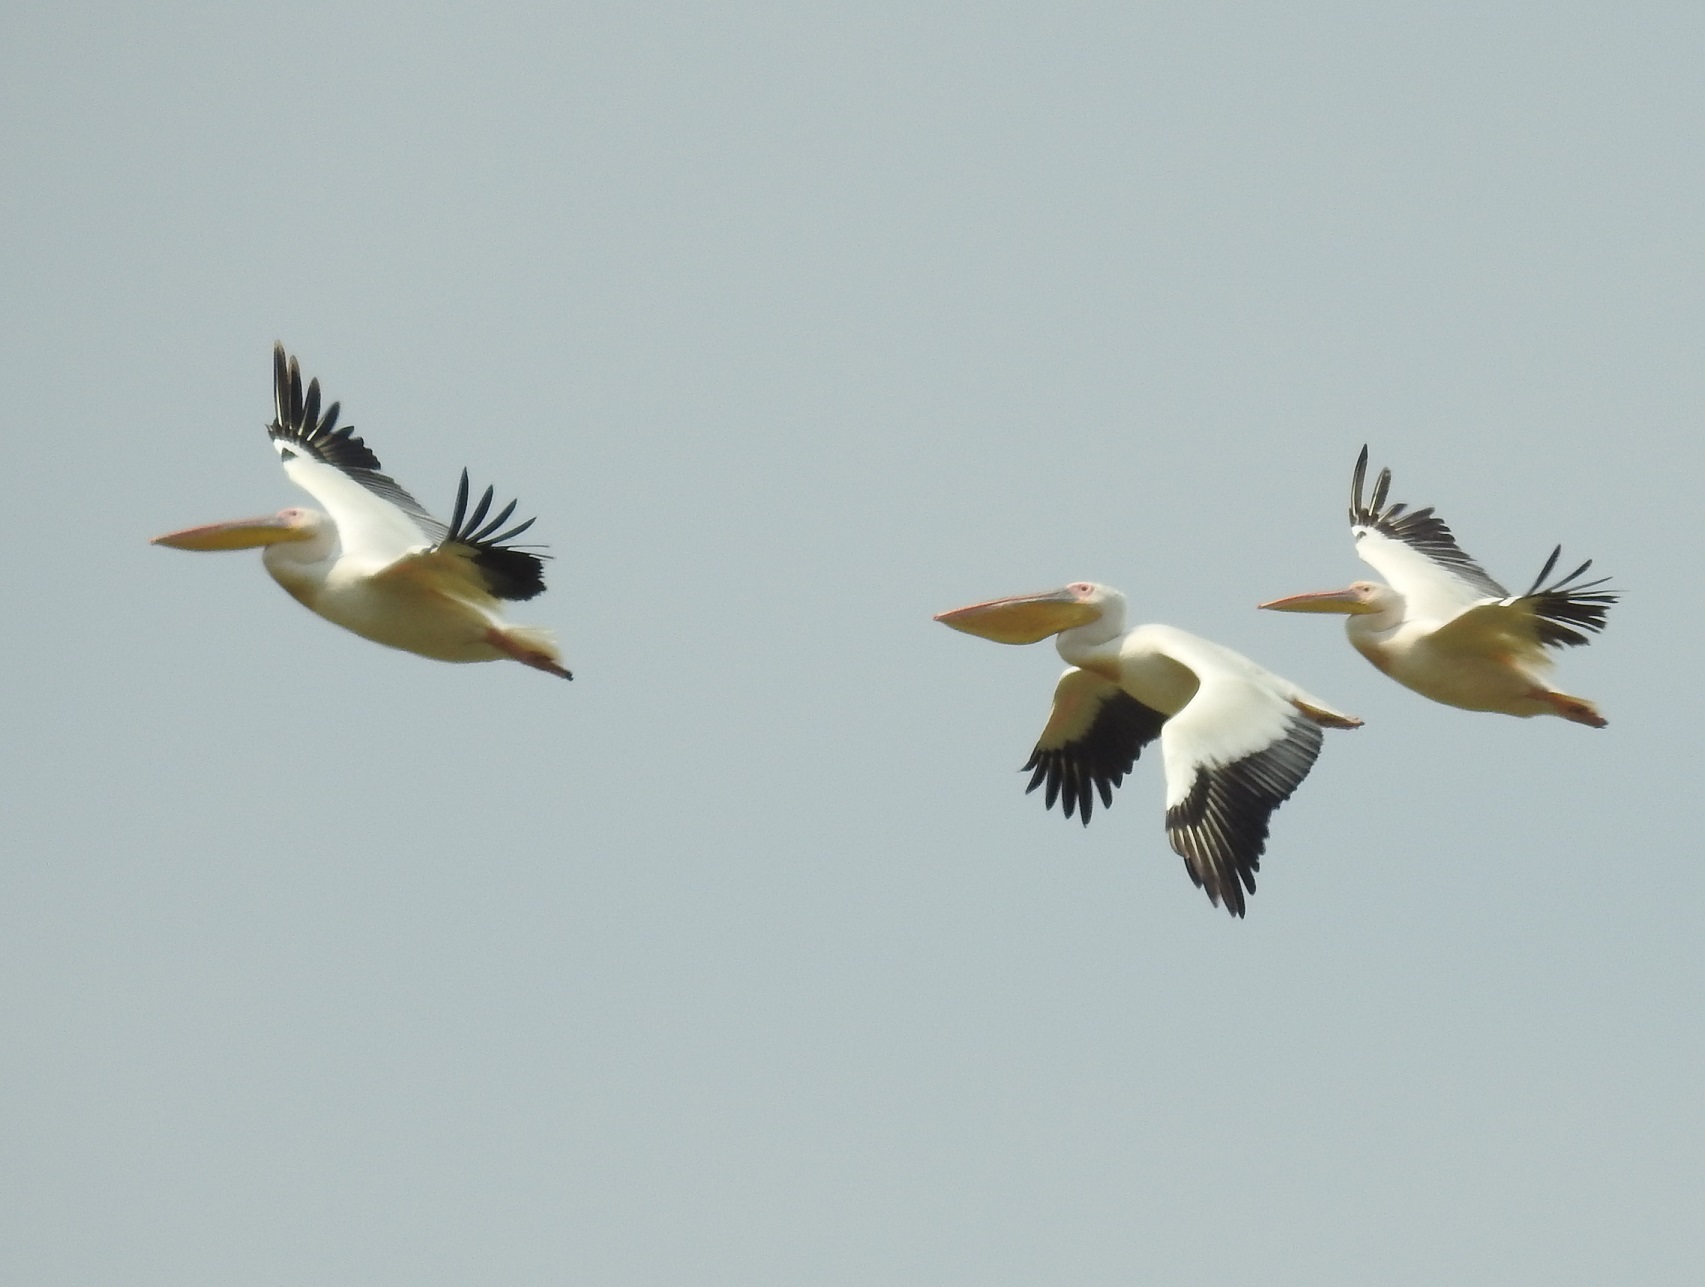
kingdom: Animalia
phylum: Chordata
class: Aves
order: Pelecaniformes
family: Pelecanidae
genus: Pelecanus
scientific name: Pelecanus onocrotalus
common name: Great white pelican
